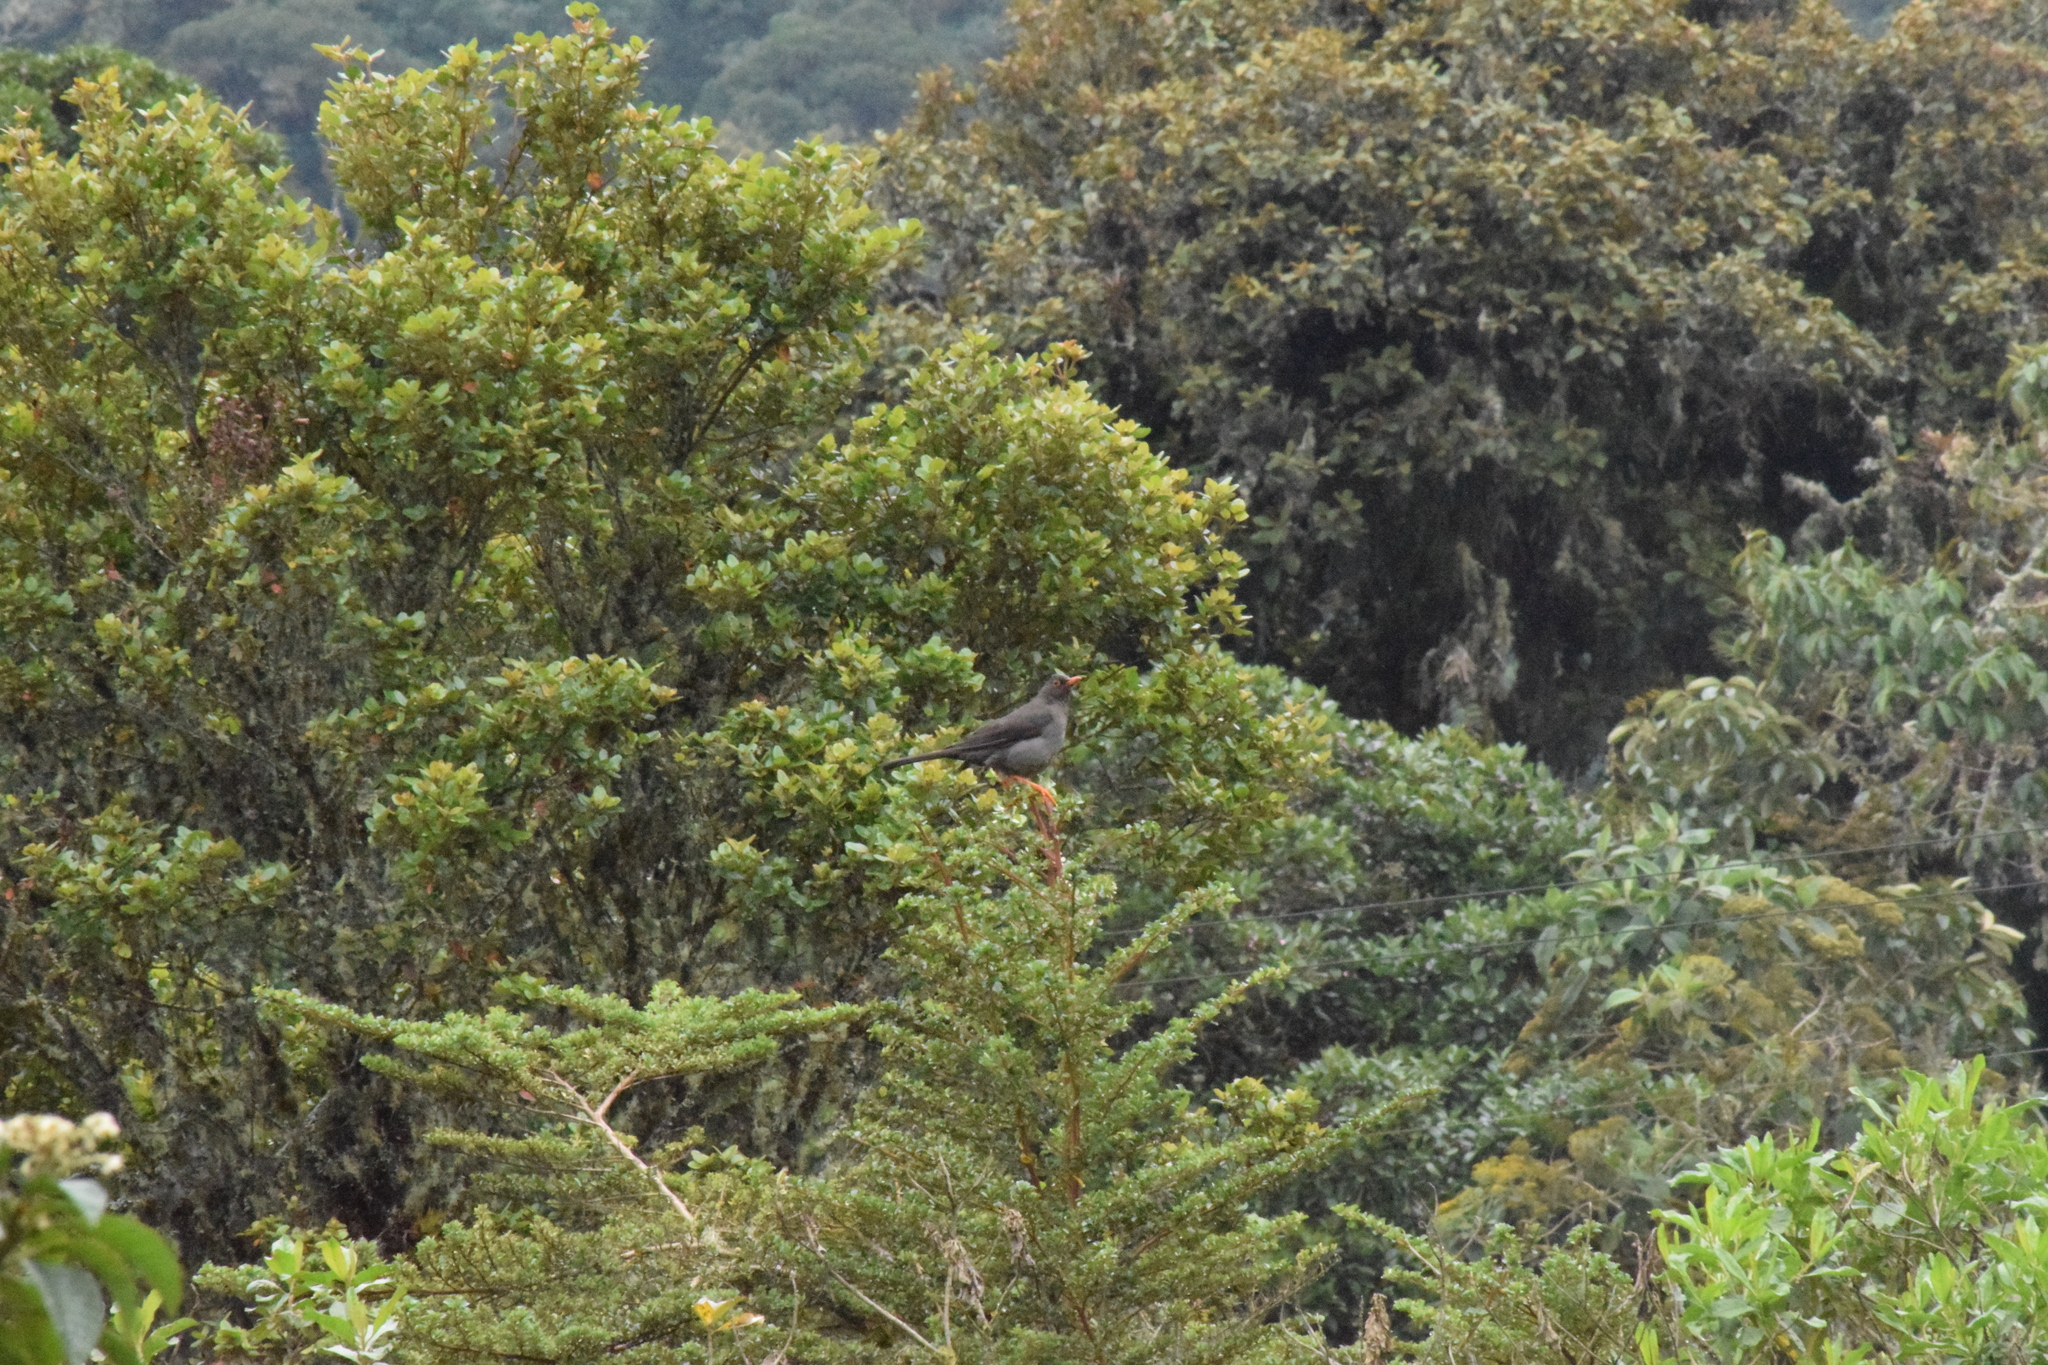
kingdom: Animalia
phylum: Chordata
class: Aves
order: Passeriformes
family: Turdidae
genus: Turdus
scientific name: Turdus fuscater
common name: Great thrush
